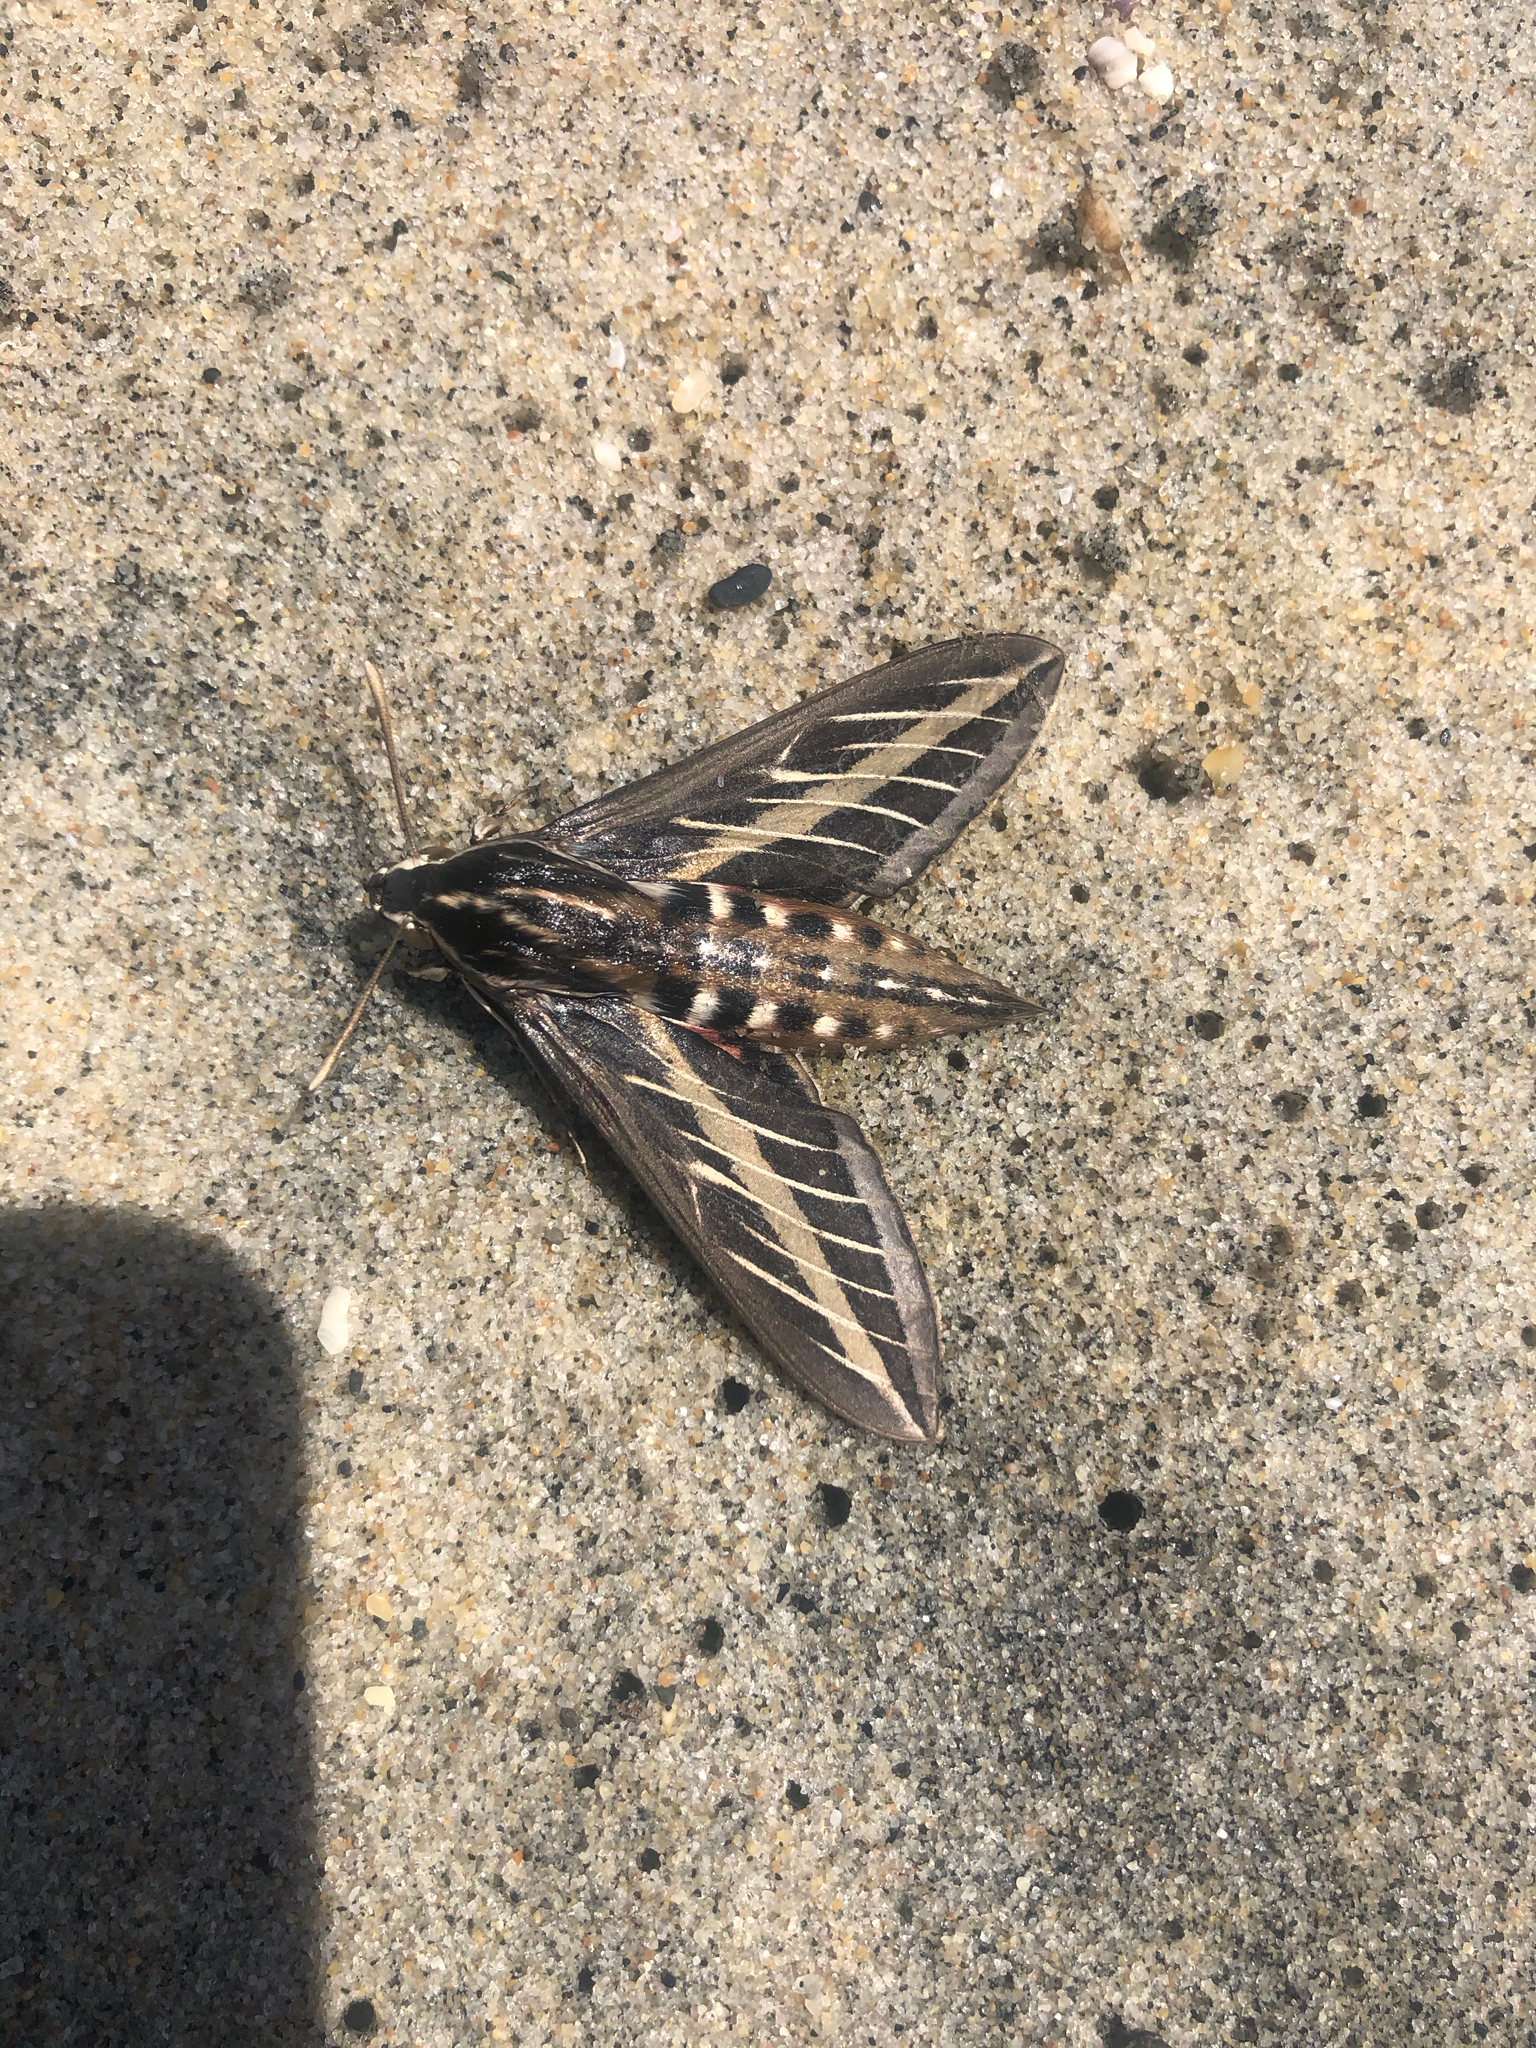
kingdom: Animalia
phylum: Arthropoda
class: Insecta
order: Lepidoptera
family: Sphingidae
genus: Hyles
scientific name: Hyles lineata
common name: White-lined sphinx
